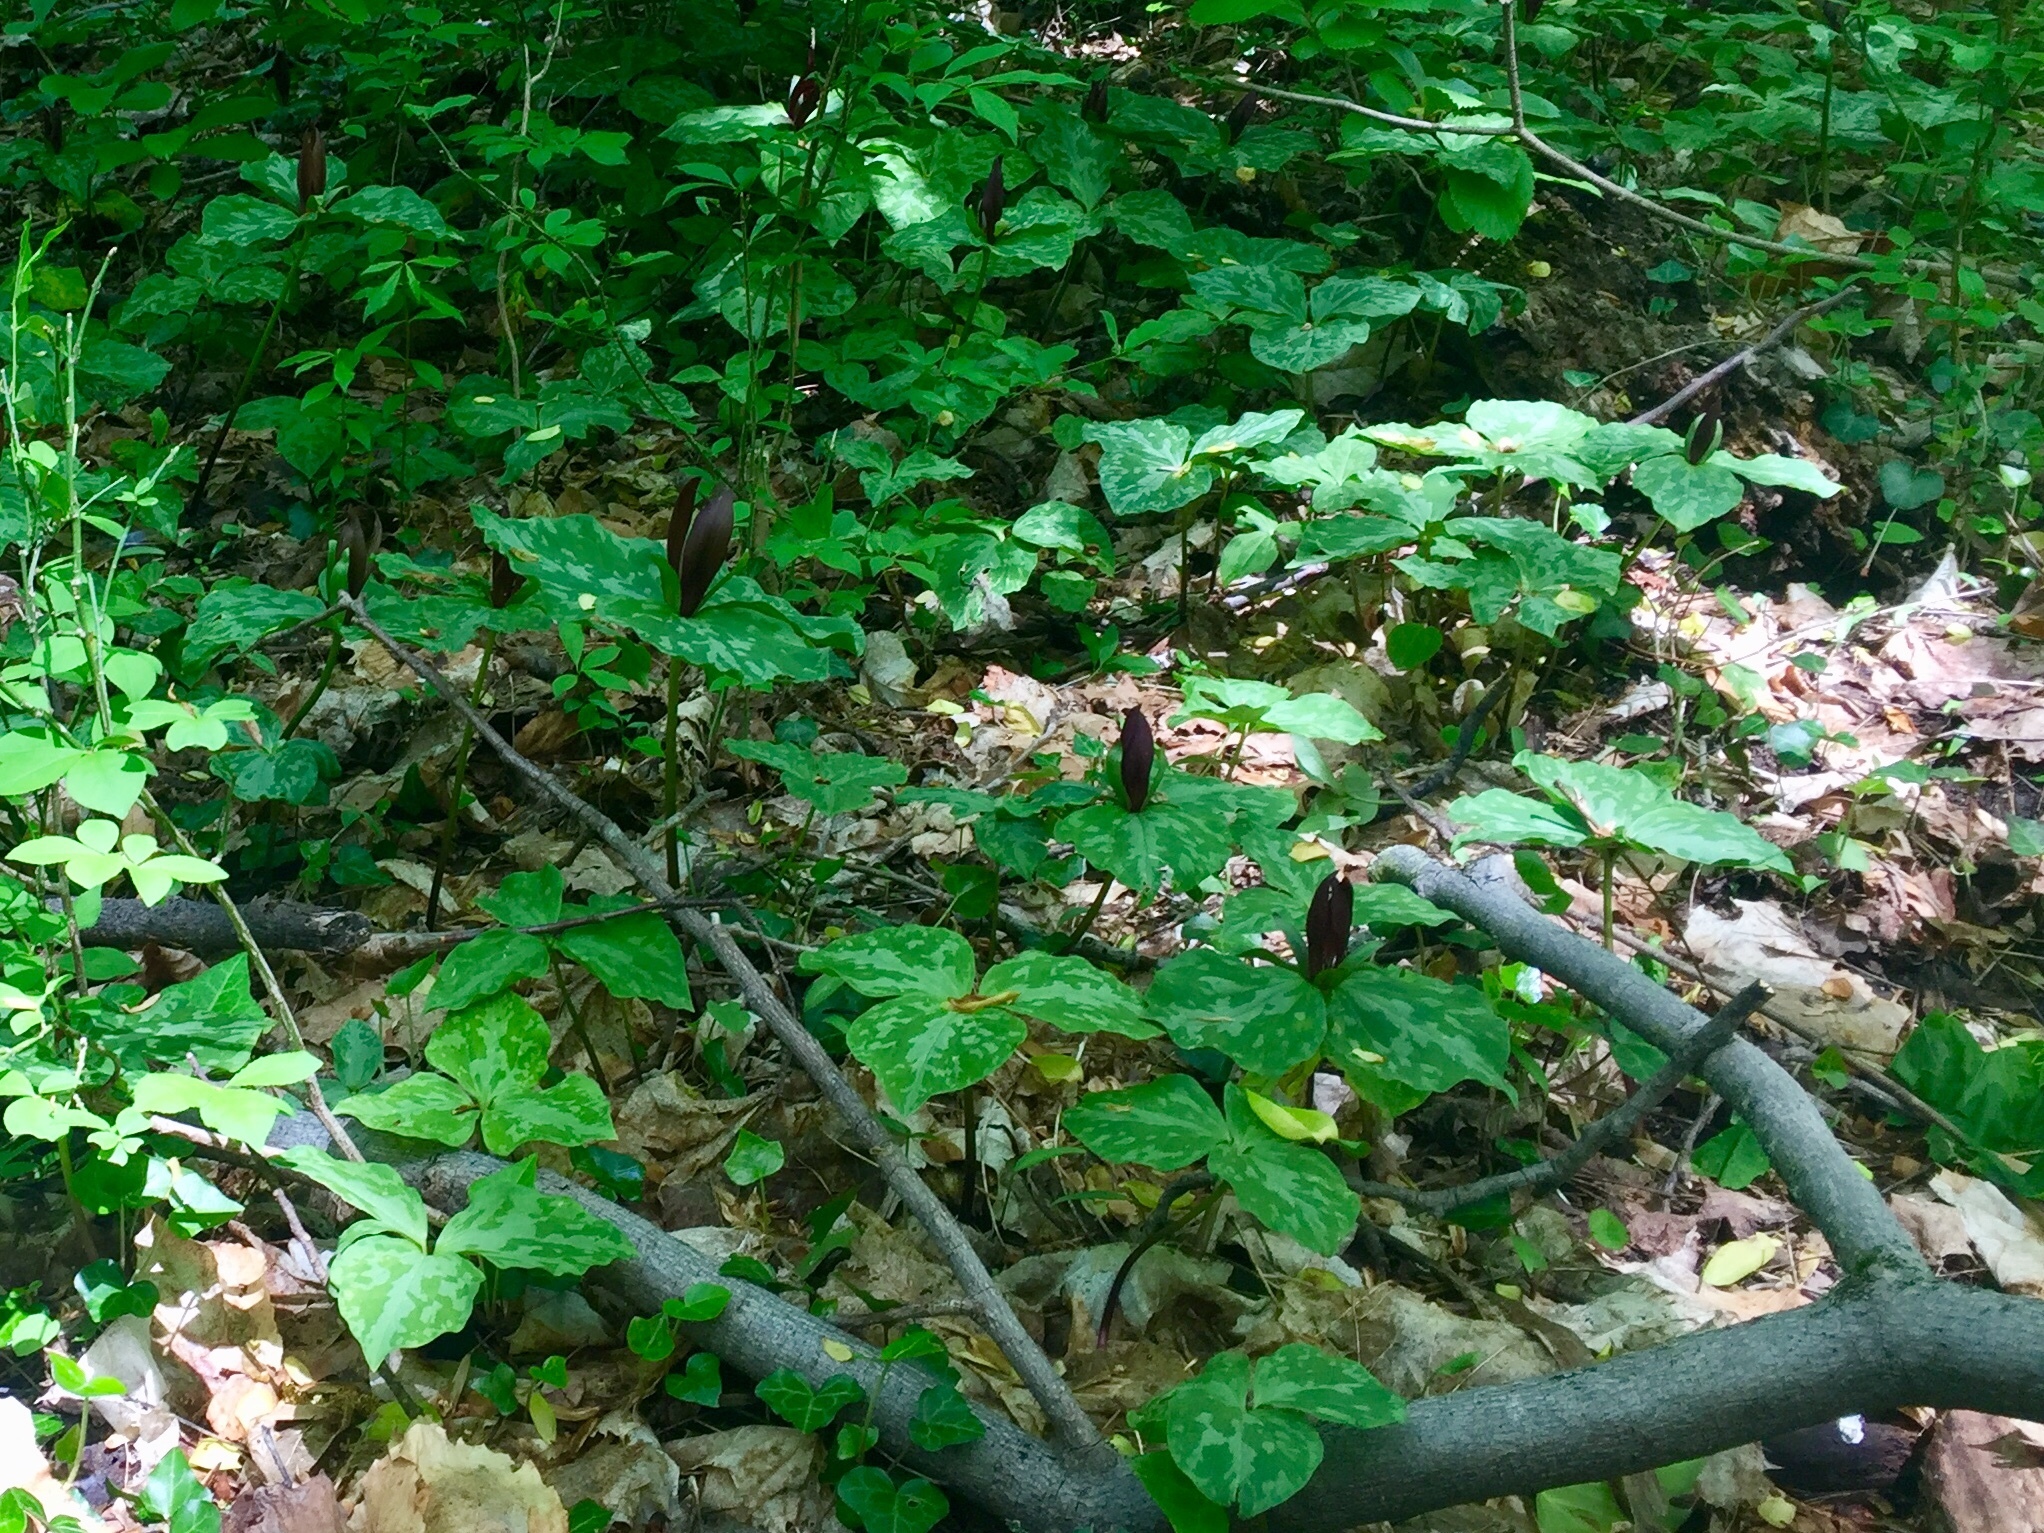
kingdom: Plantae
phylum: Tracheophyta
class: Liliopsida
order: Liliales
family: Melanthiaceae
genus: Trillium
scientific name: Trillium cuneatum
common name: Cuneate trillium
